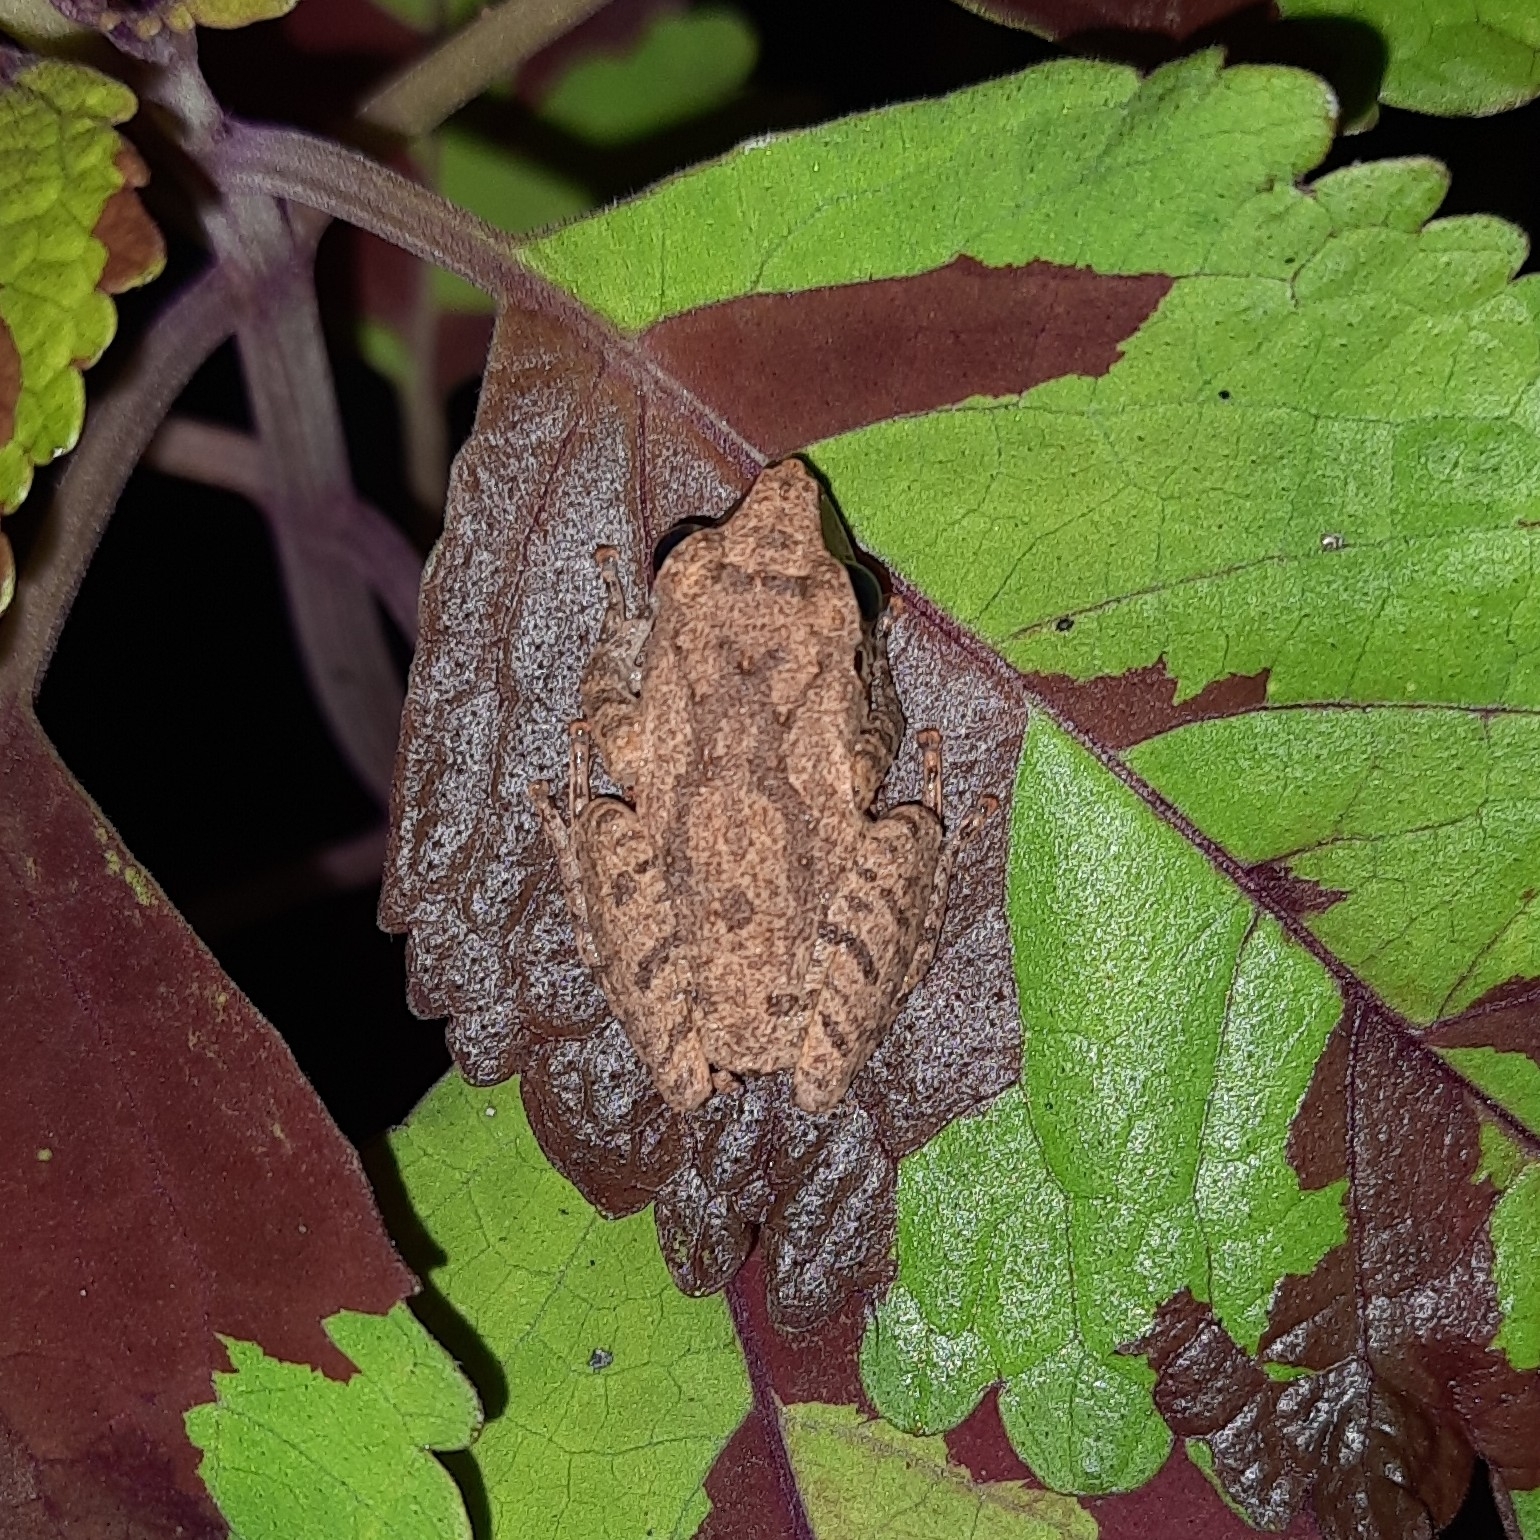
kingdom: Animalia
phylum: Chordata
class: Amphibia
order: Anura
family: Rhacophoridae
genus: Pseudophilautus
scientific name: Pseudophilautus wynaadensis
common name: Dark-eared bush frog
